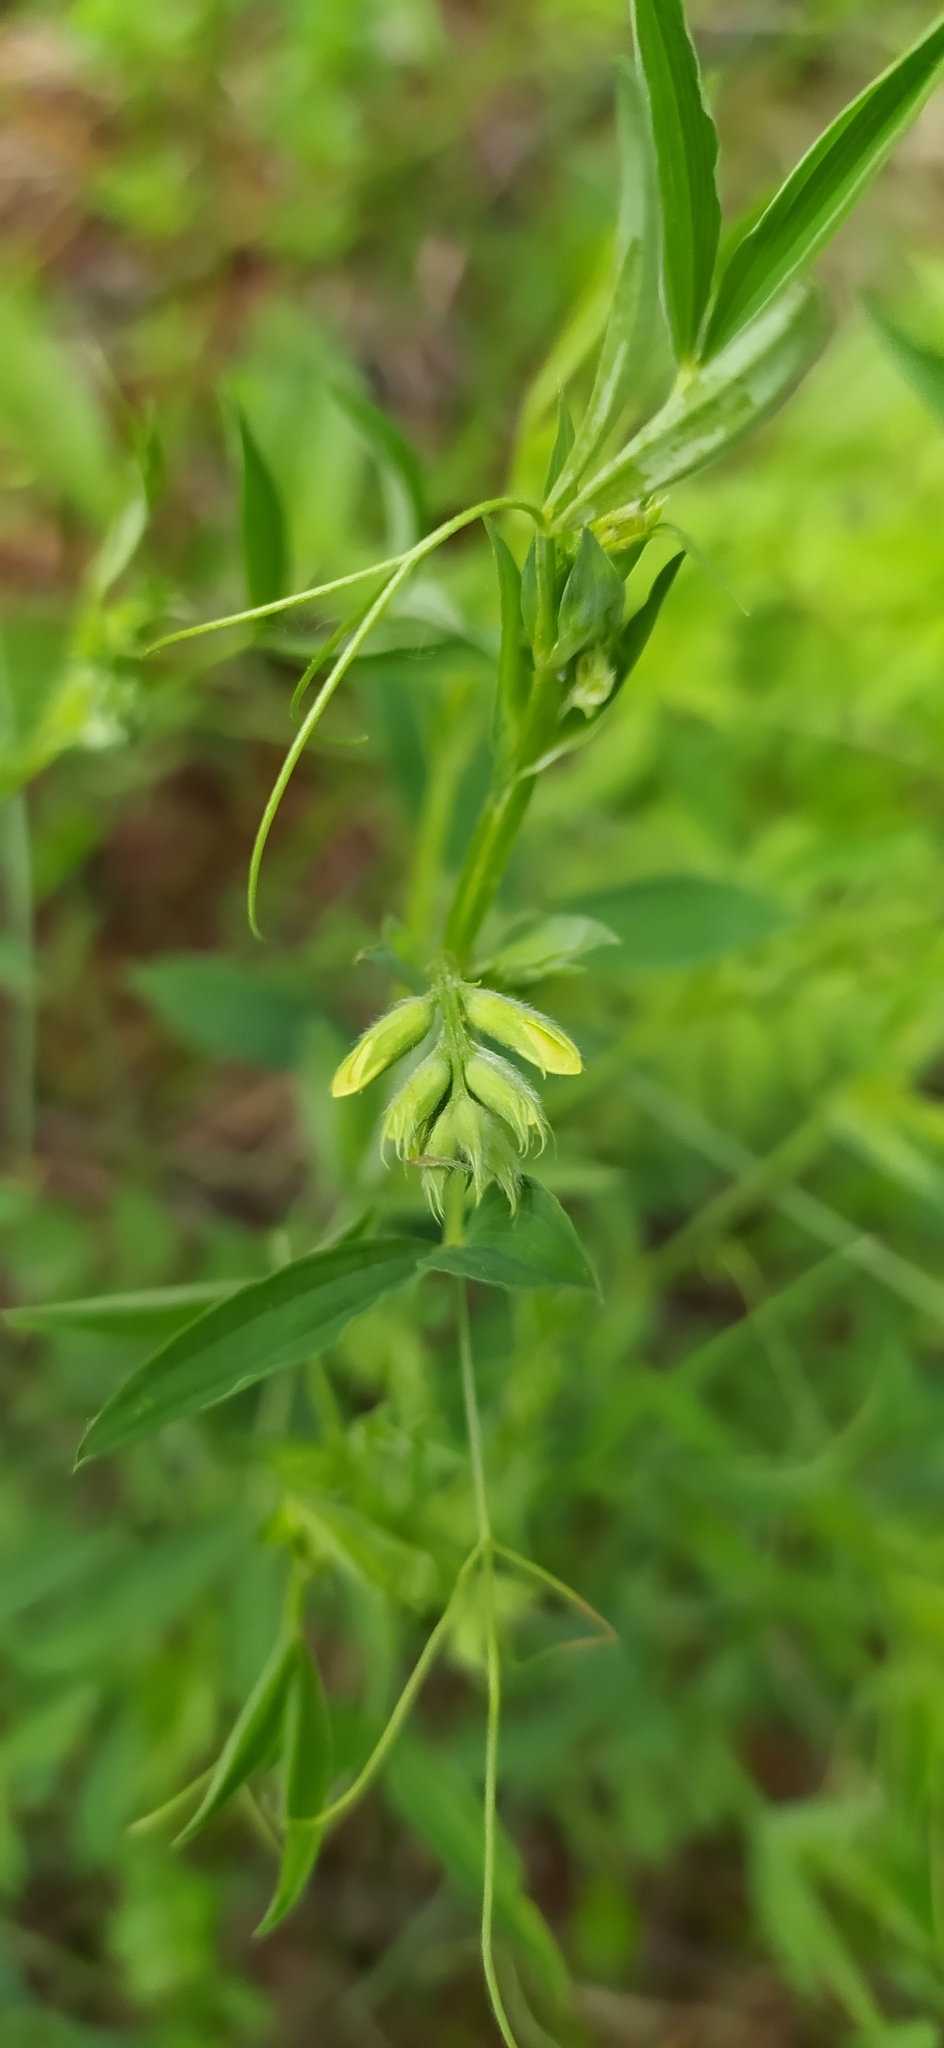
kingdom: Plantae
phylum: Tracheophyta
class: Magnoliopsida
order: Fabales
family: Fabaceae
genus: Lathyrus
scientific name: Lathyrus pratensis
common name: Meadow vetchling
